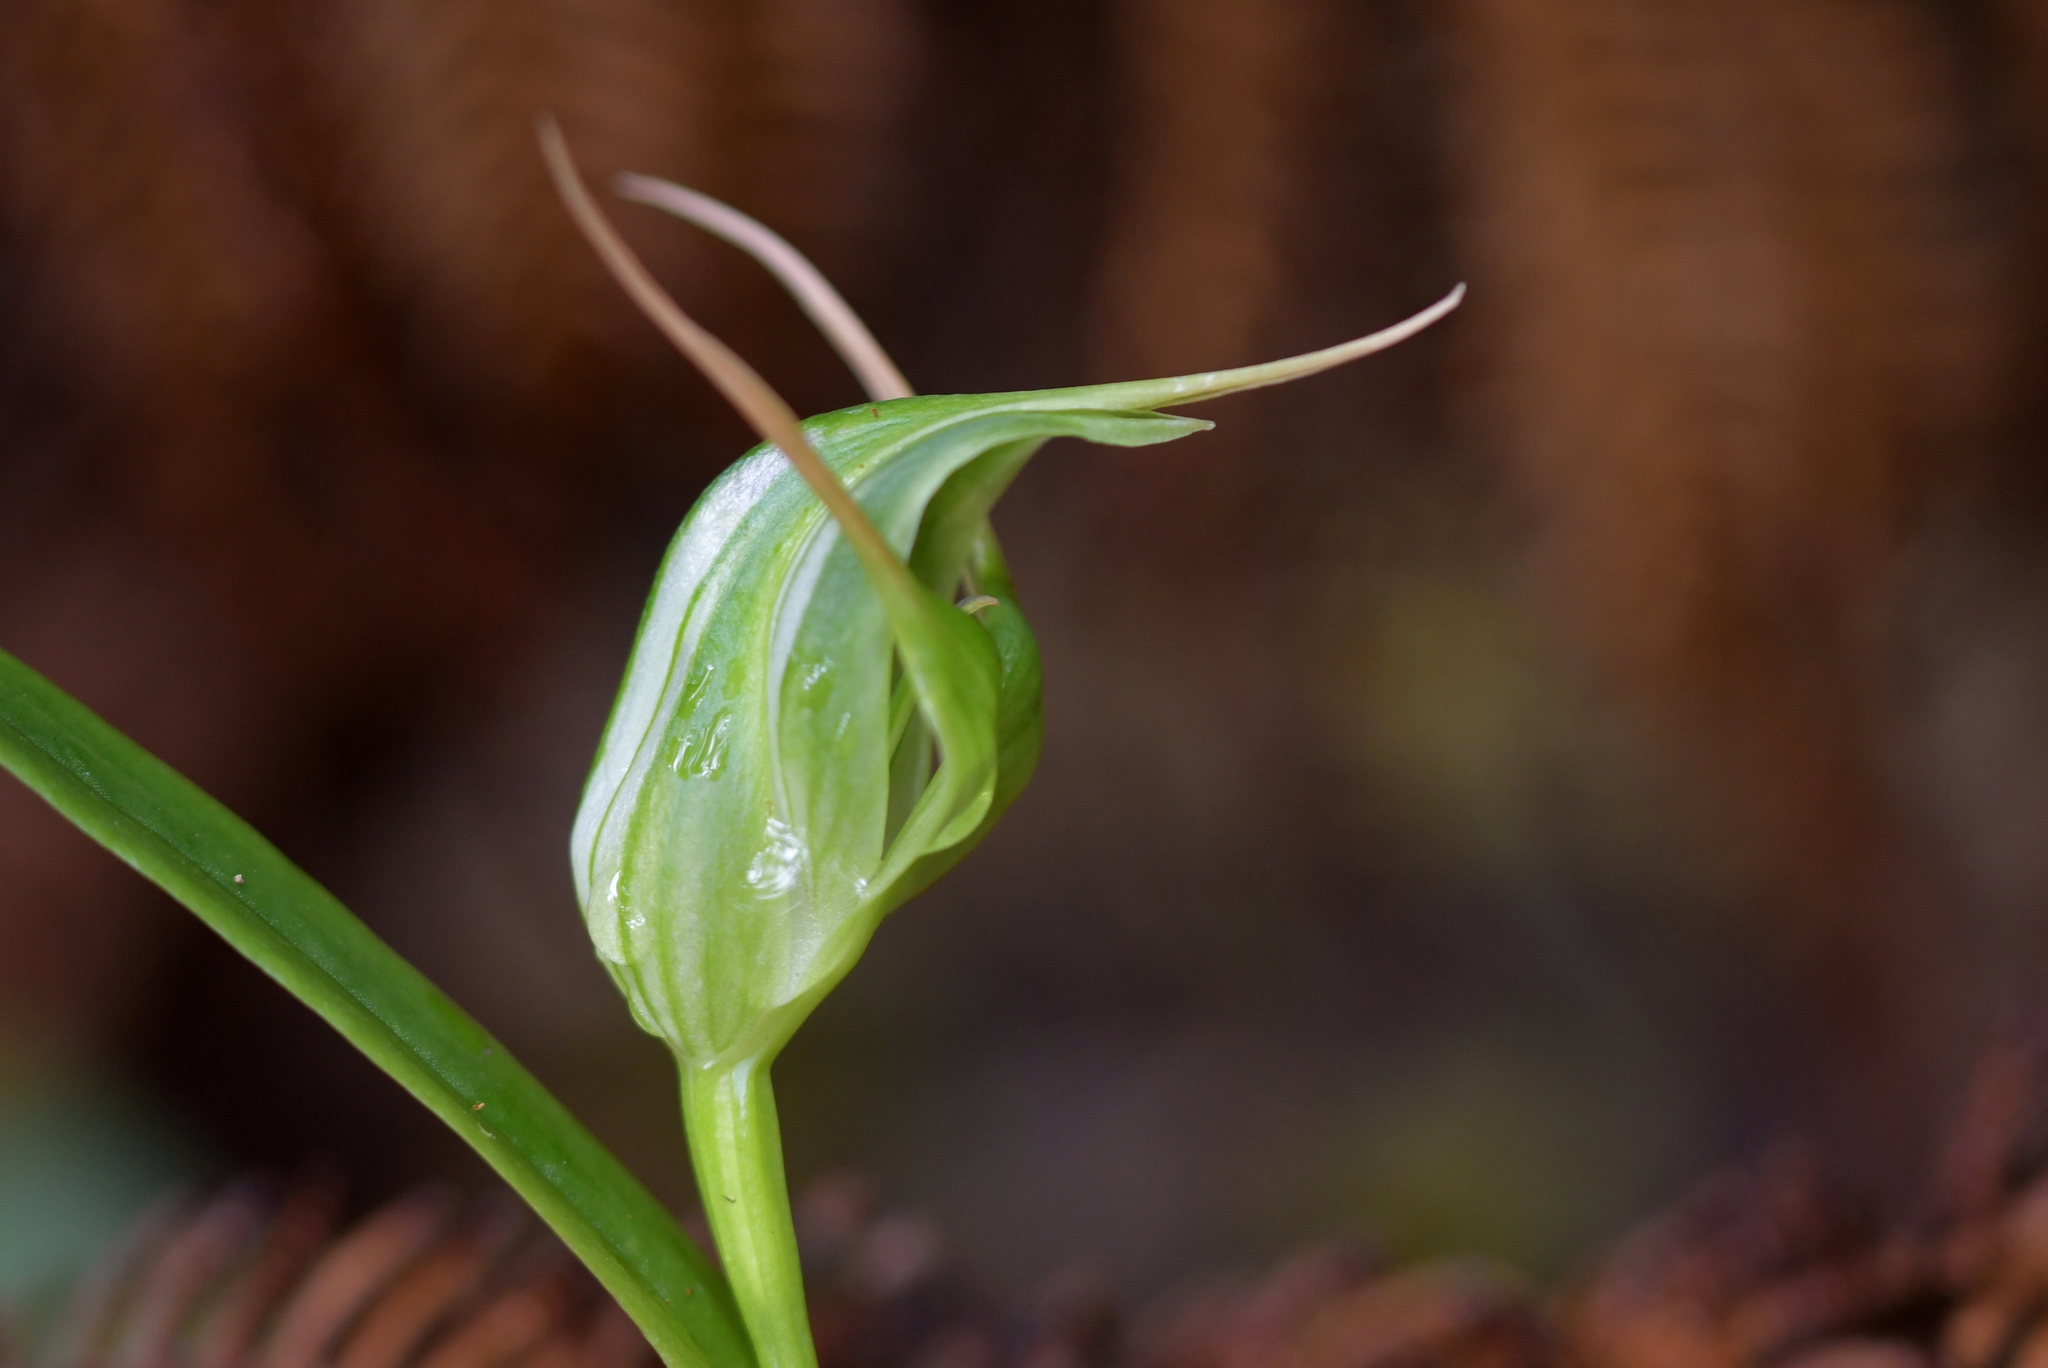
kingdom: Plantae
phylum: Tracheophyta
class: Liliopsida
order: Asparagales
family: Orchidaceae
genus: Pterostylis
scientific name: Pterostylis banksii
